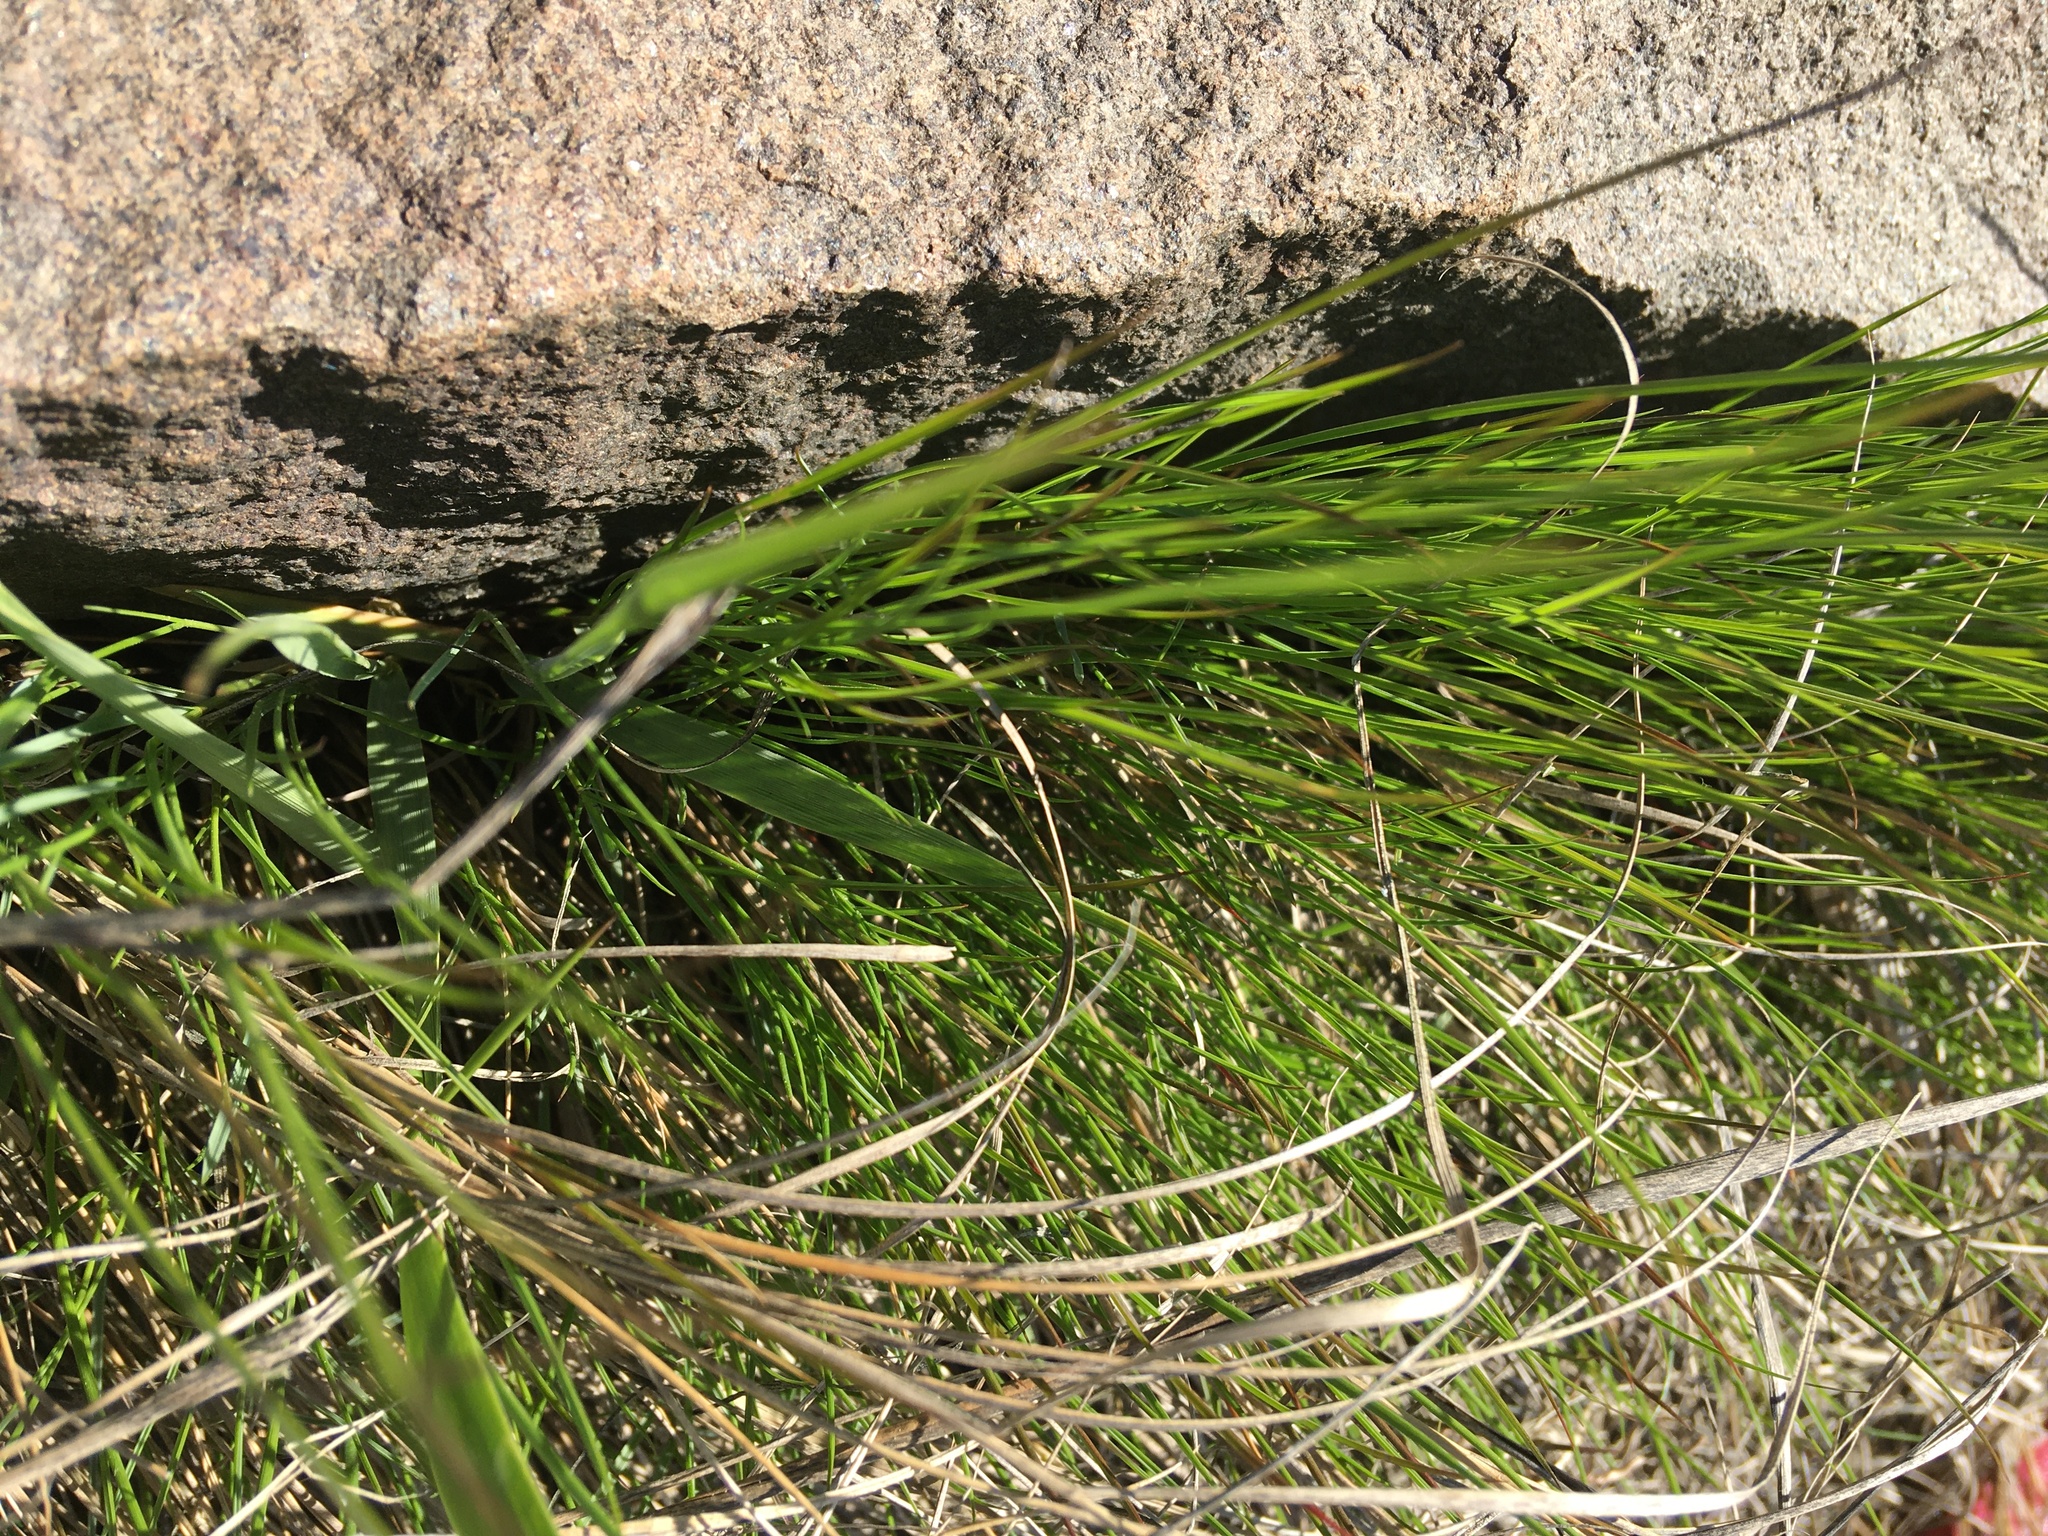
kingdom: Plantae
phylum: Tracheophyta
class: Liliopsida
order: Poales
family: Poaceae
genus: Sporobolus
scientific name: Sporobolus pumilus
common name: Highwater grass
